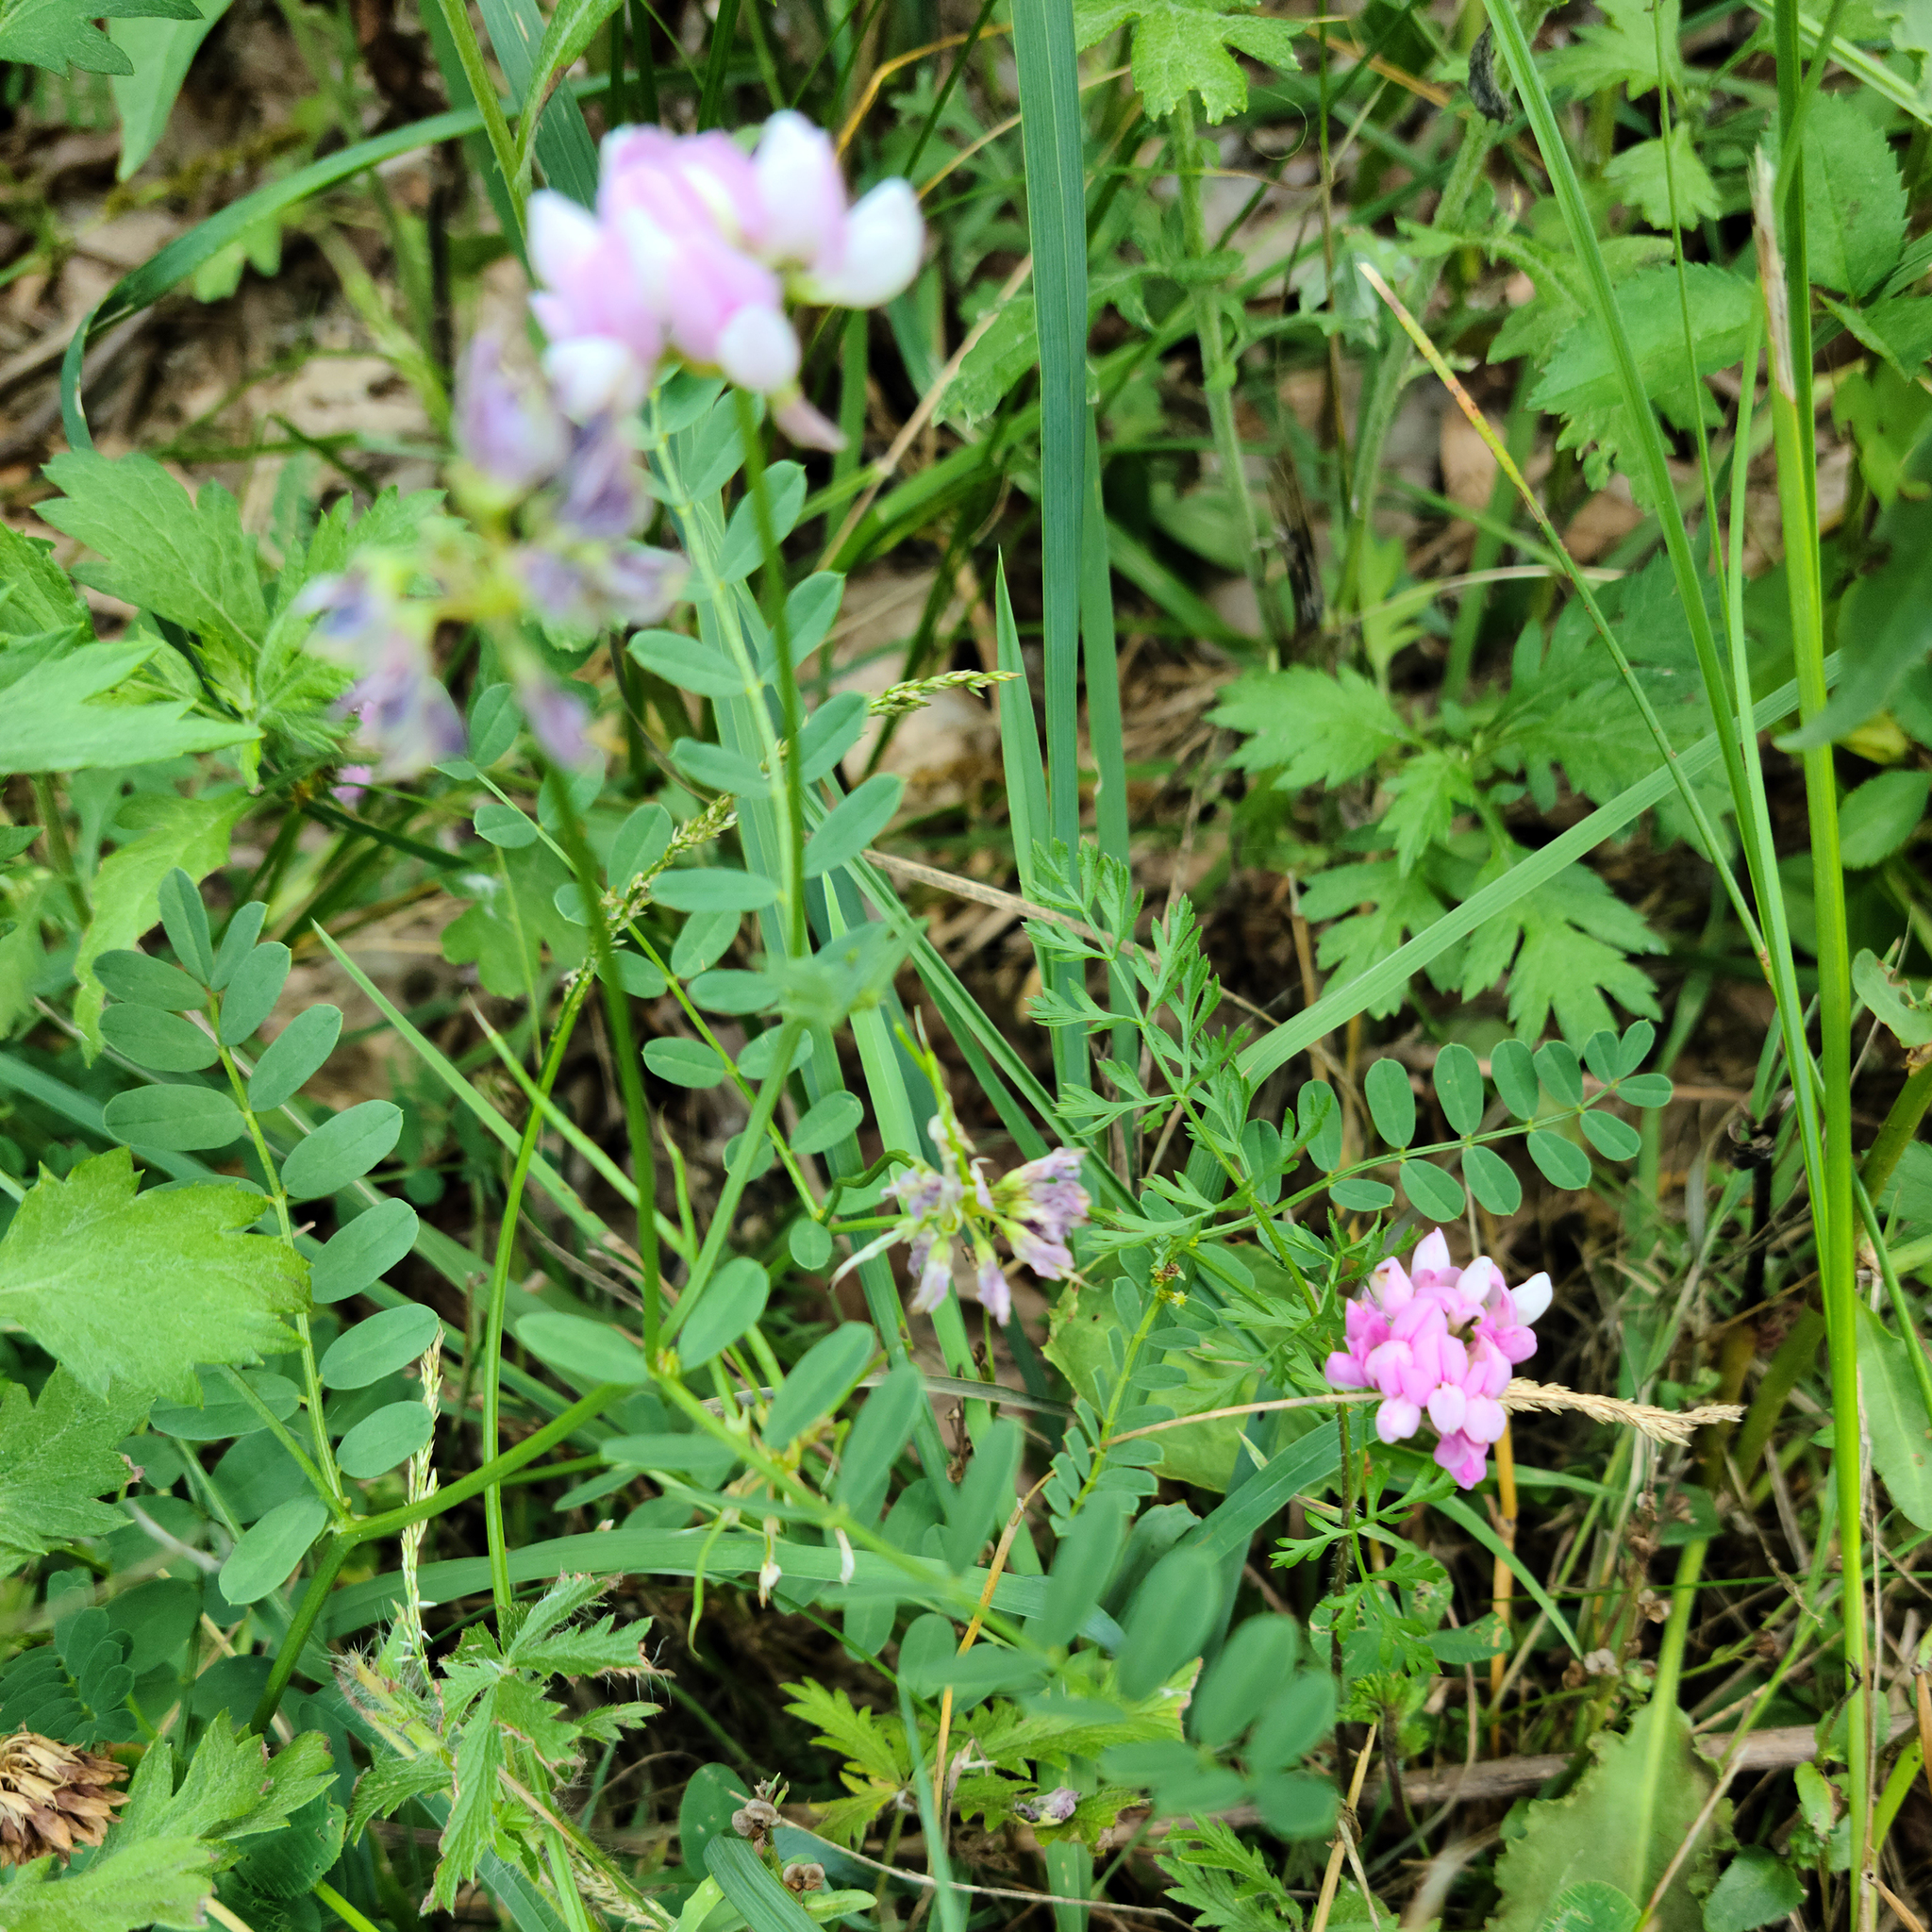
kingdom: Plantae
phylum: Tracheophyta
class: Magnoliopsida
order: Fabales
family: Fabaceae
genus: Coronilla
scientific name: Coronilla varia
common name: Crownvetch
